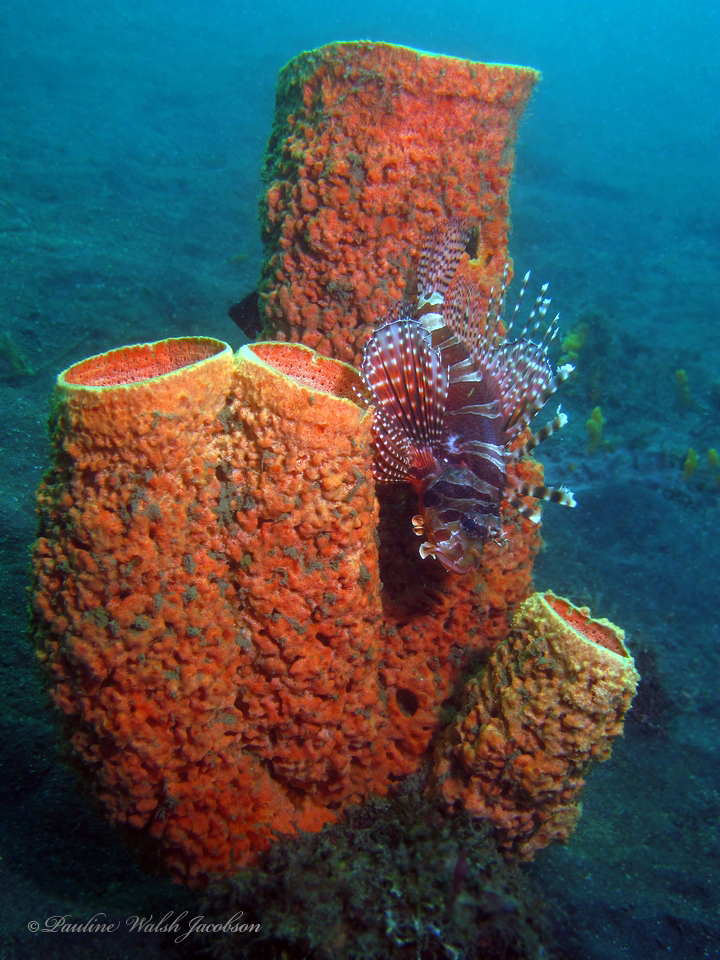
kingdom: Animalia
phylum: Chordata
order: Scorpaeniformes
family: Scorpaenidae
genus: Dendrochirus
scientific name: Dendrochirus zebra
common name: Zebra lionfish
